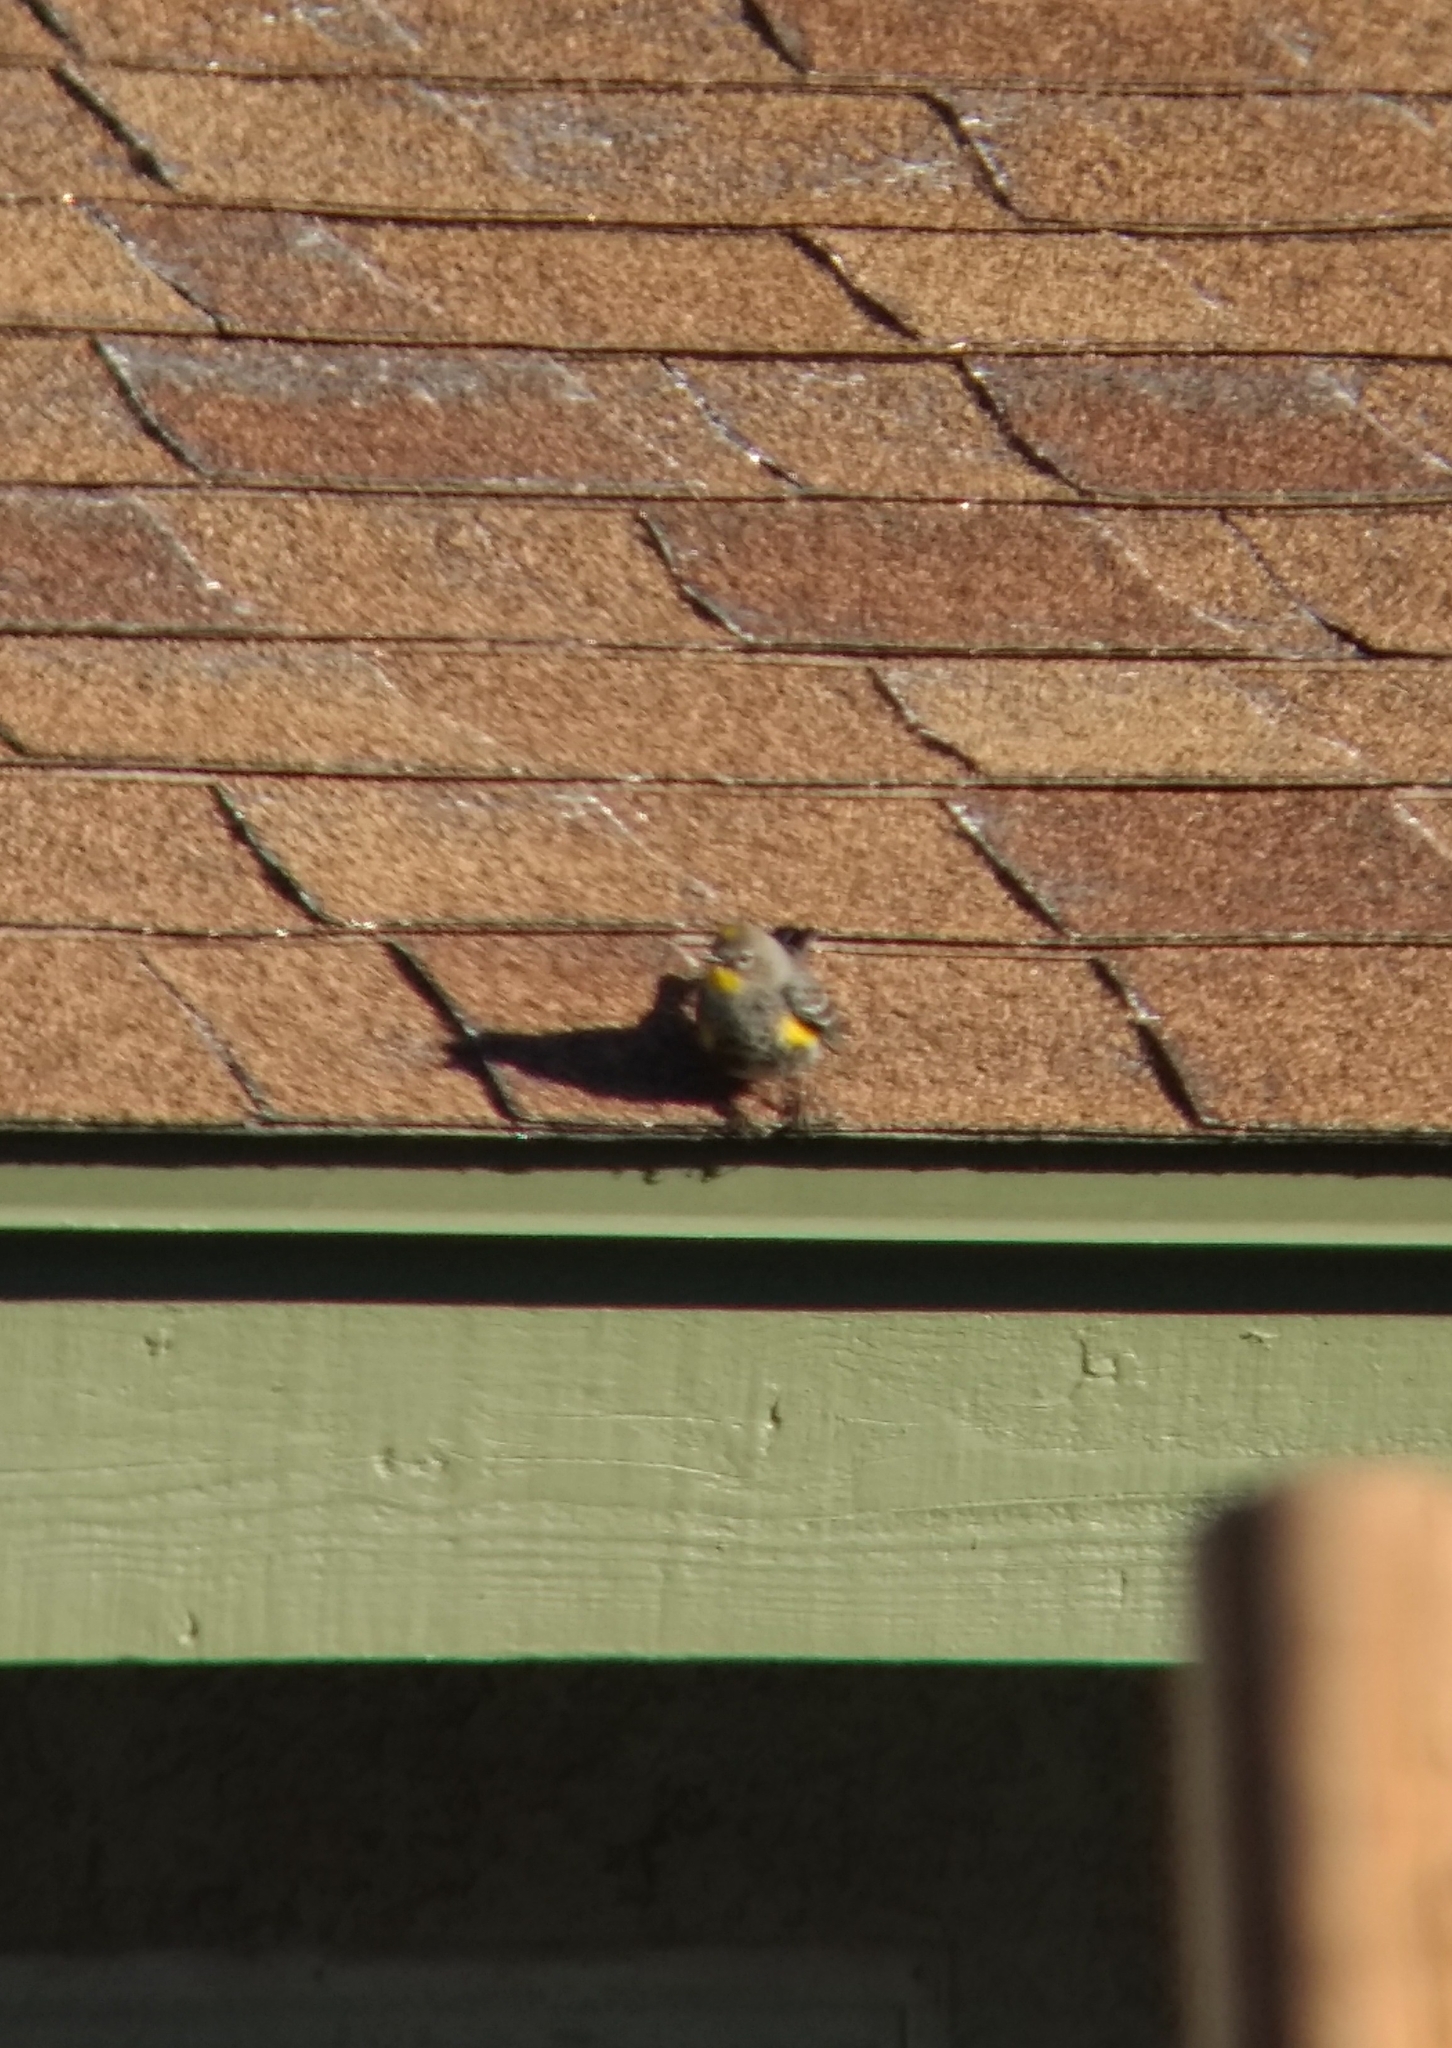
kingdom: Animalia
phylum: Chordata
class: Aves
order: Passeriformes
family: Parulidae
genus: Setophaga
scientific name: Setophaga coronata
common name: Myrtle warbler
